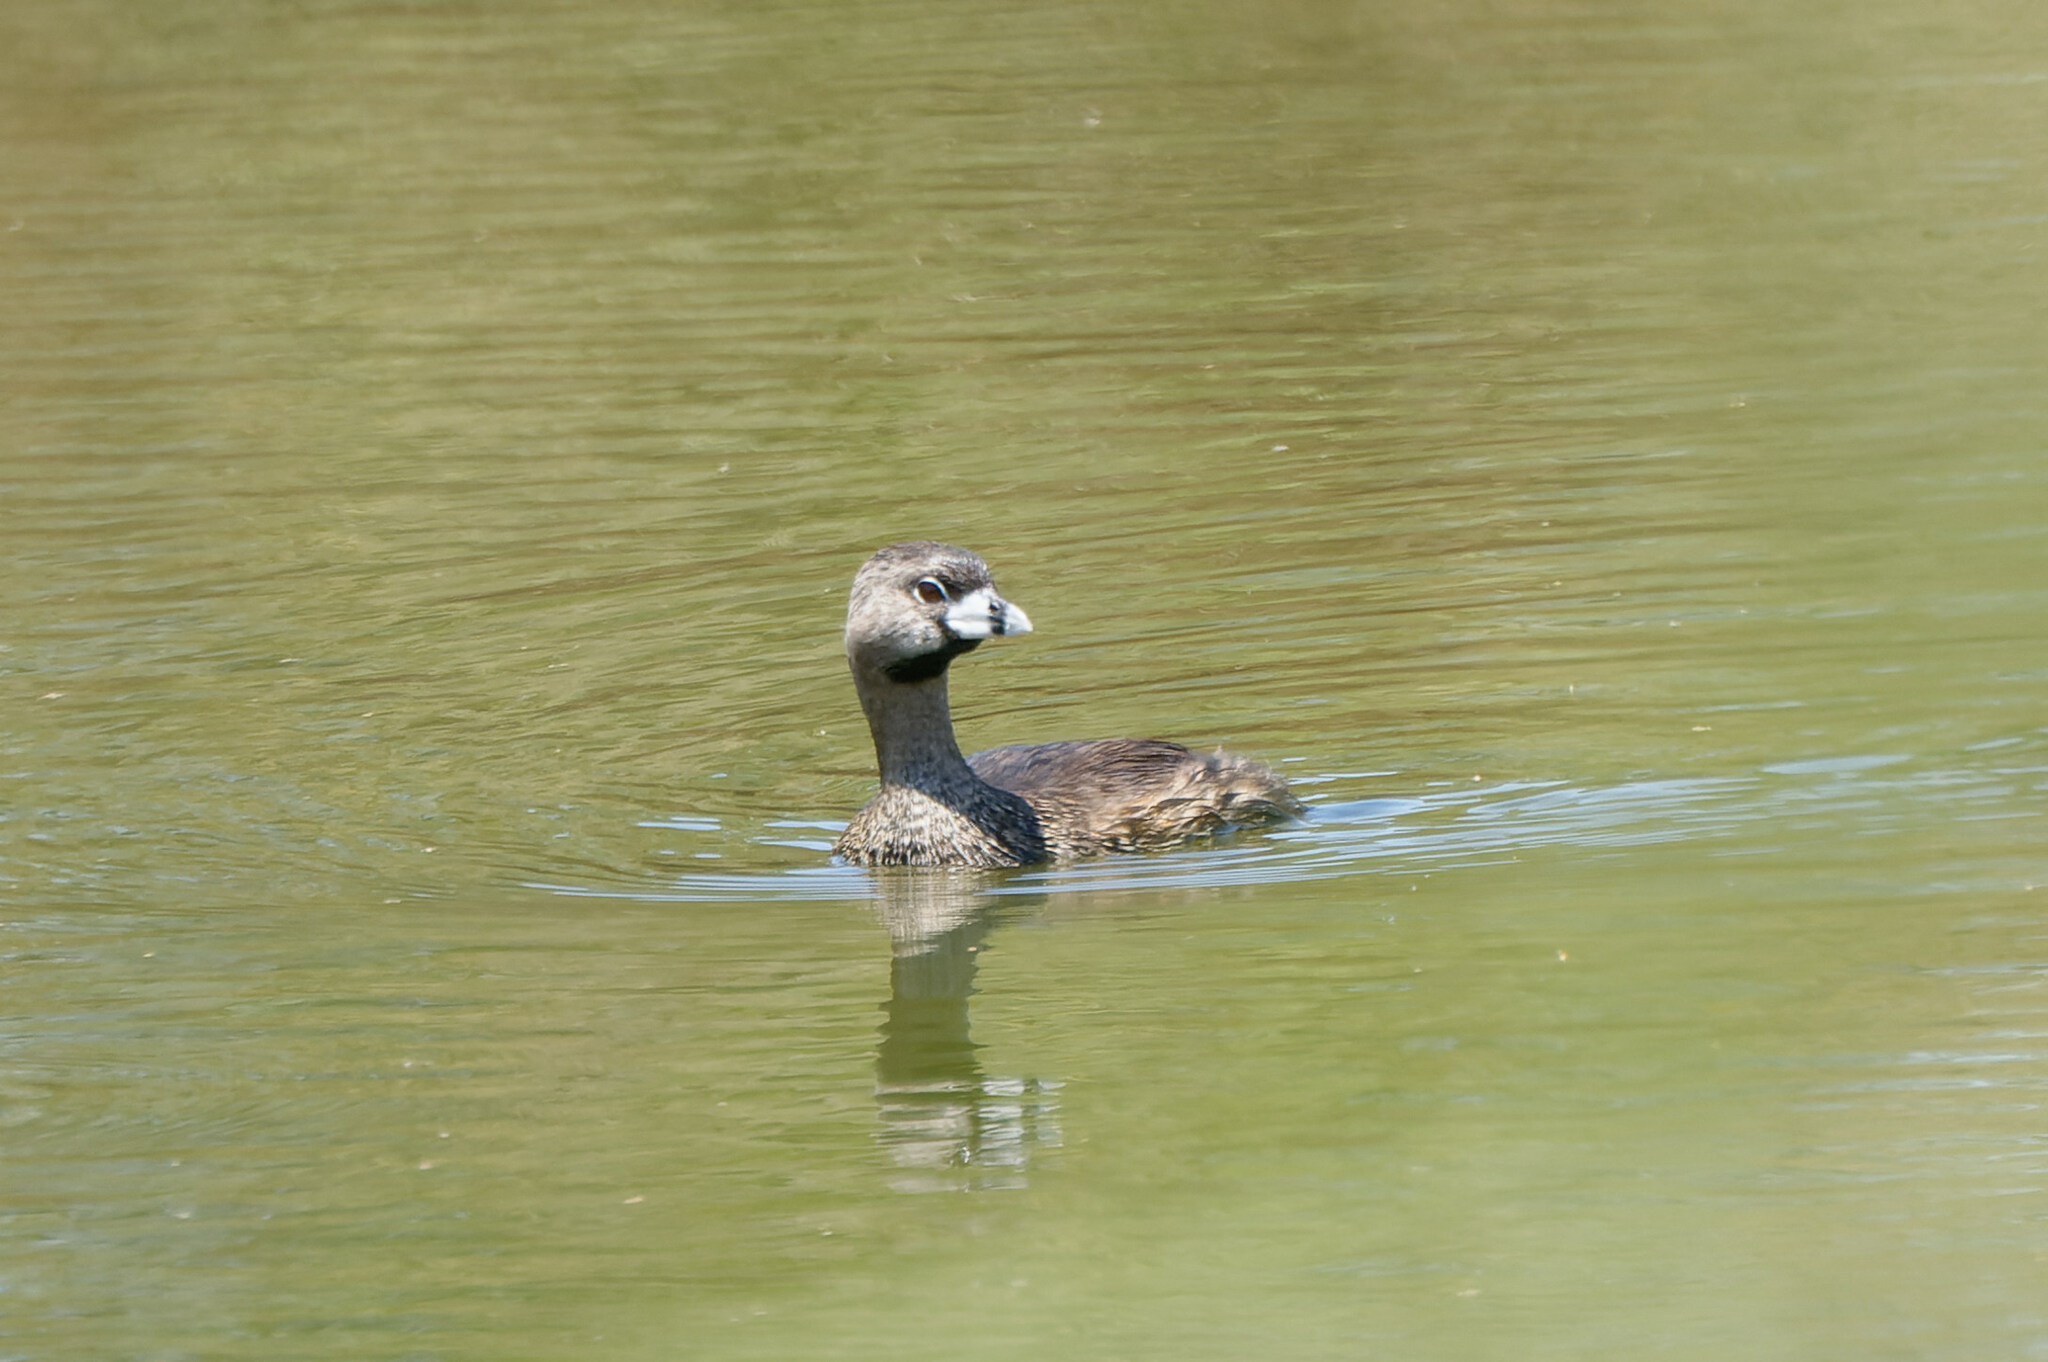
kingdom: Animalia
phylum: Chordata
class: Aves
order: Podicipediformes
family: Podicipedidae
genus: Podilymbus
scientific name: Podilymbus podiceps
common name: Pied-billed grebe
